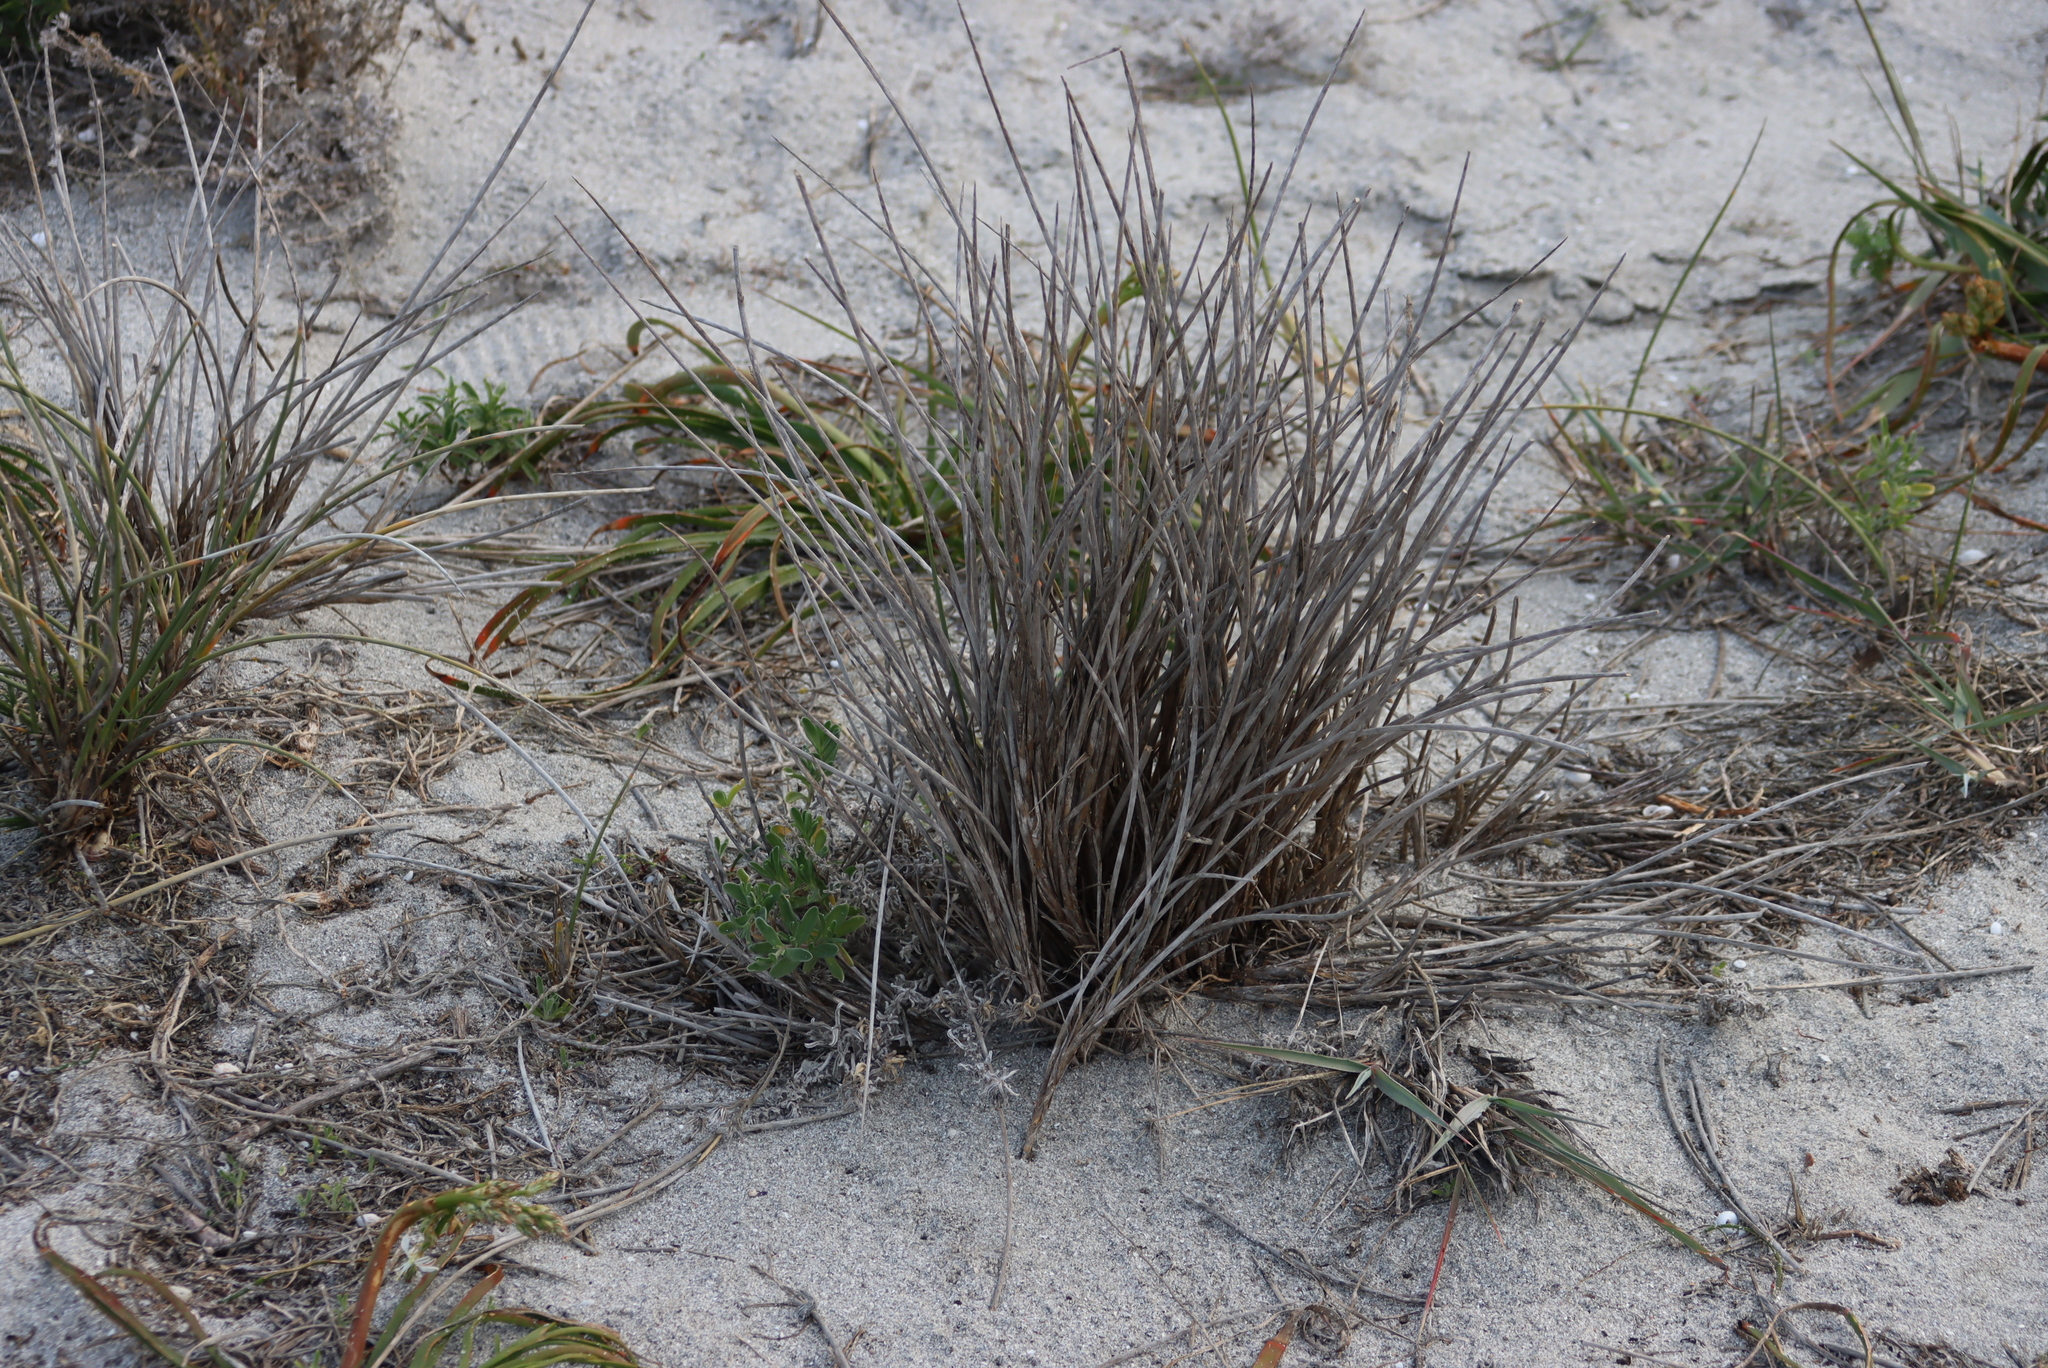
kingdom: Plantae
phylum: Tracheophyta
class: Liliopsida
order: Poales
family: Poaceae
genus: Thinopyrum
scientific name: Thinopyrum distichum
